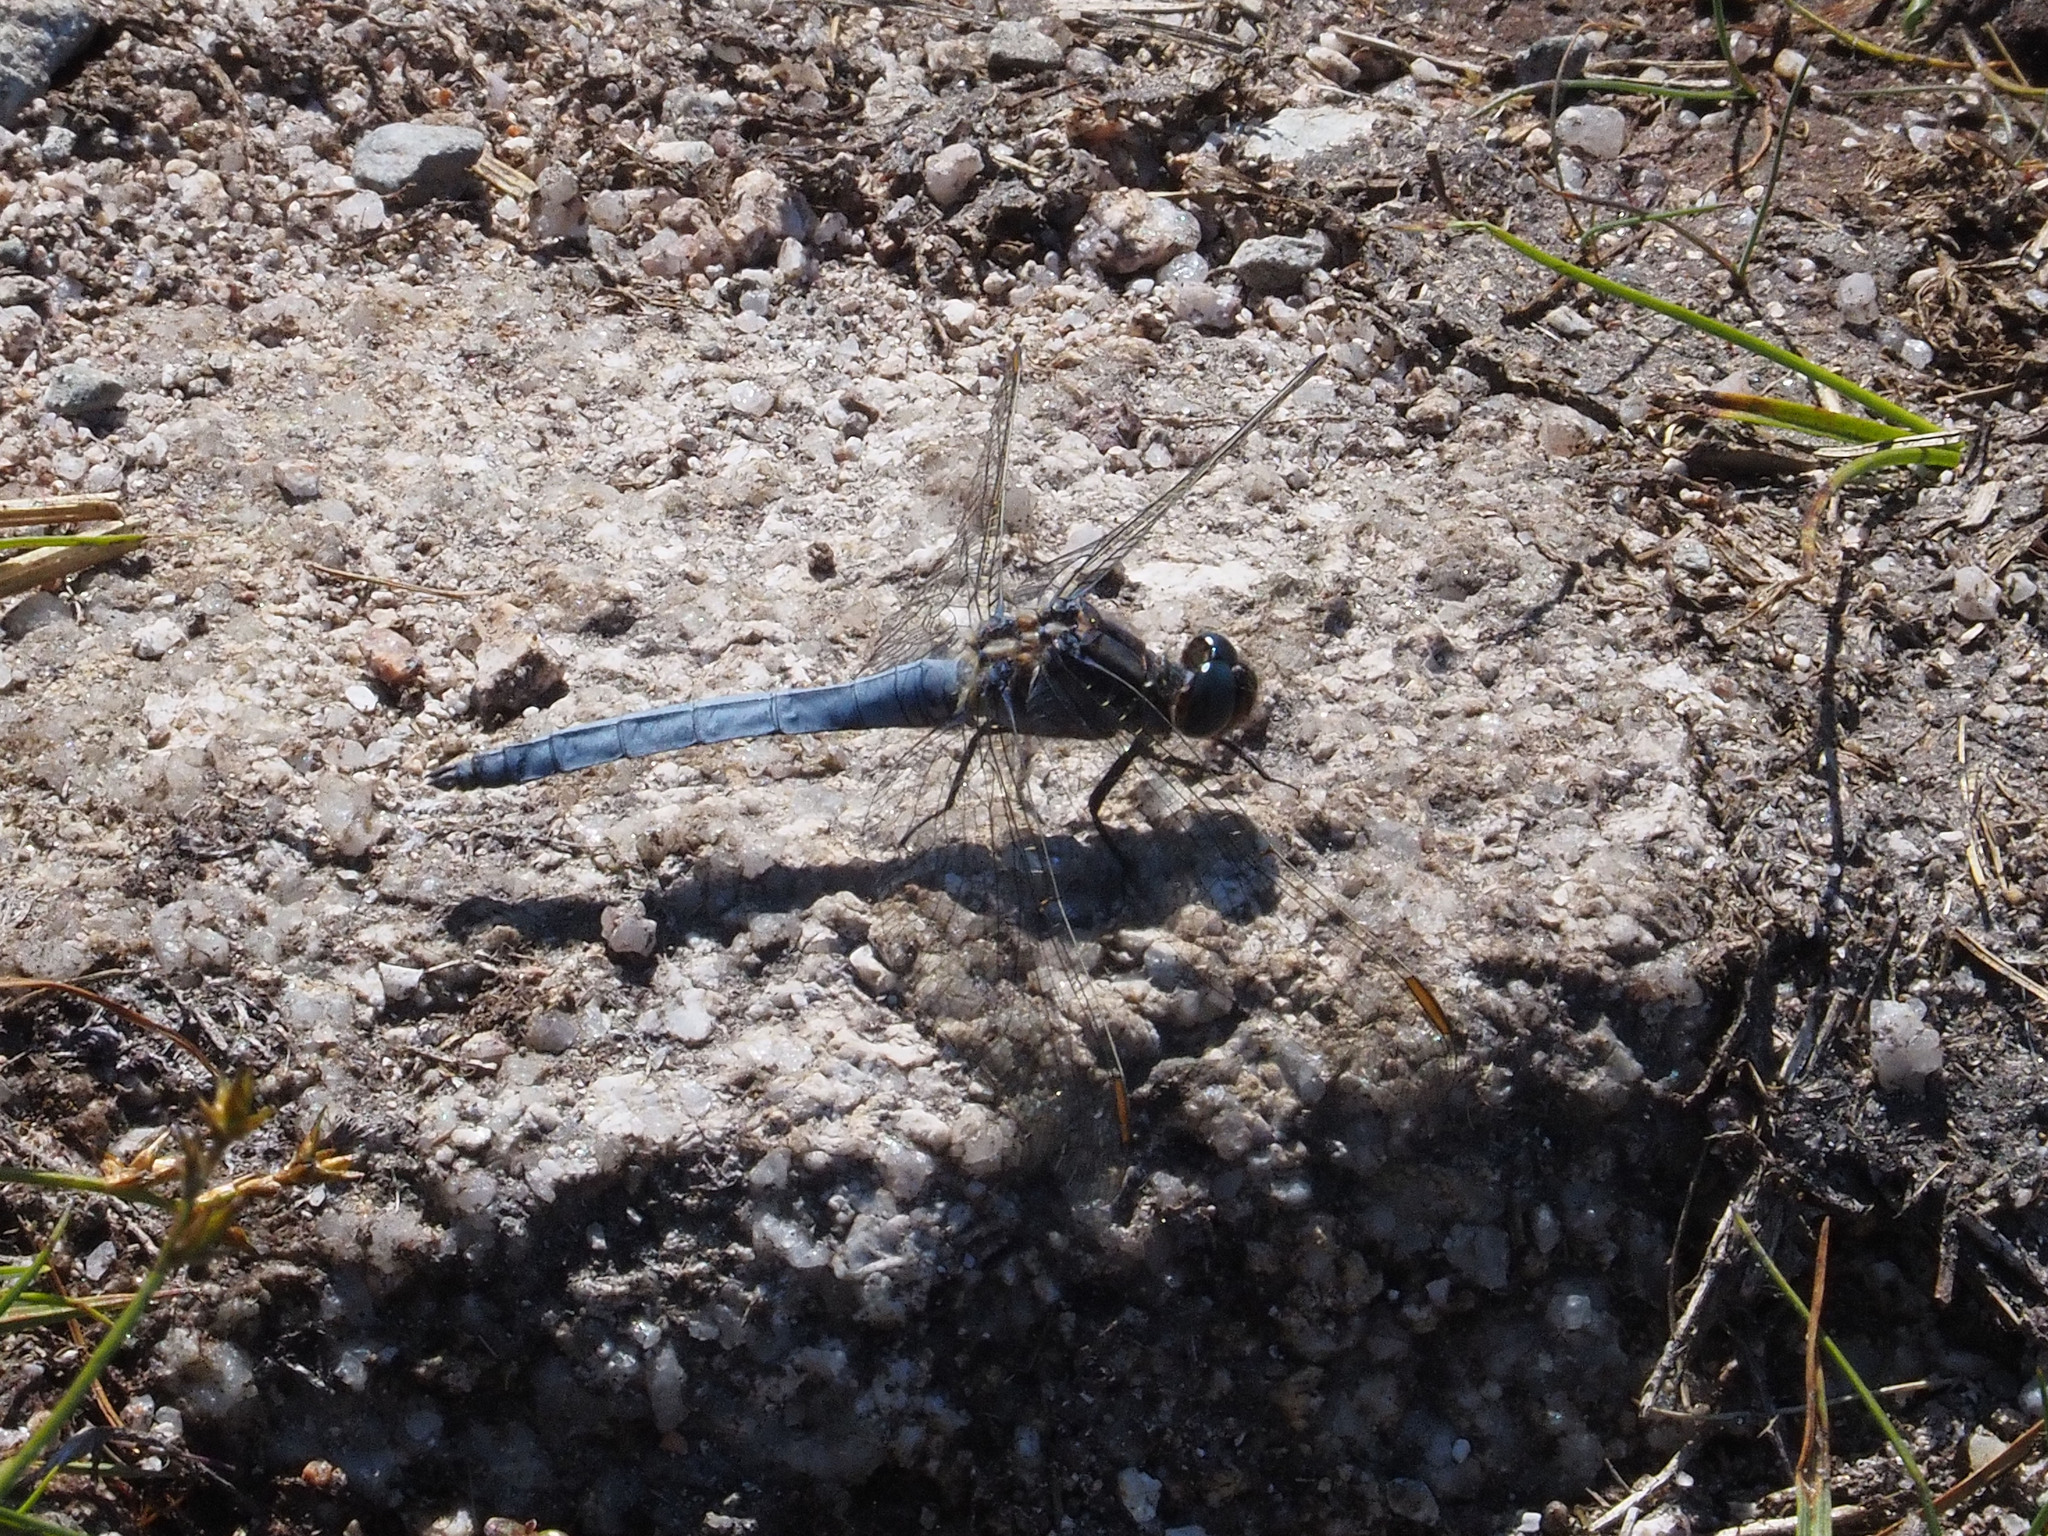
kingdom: Animalia
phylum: Arthropoda
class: Insecta
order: Odonata
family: Libellulidae
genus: Orthetrum
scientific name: Orthetrum coerulescens
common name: Keeled skimmer
